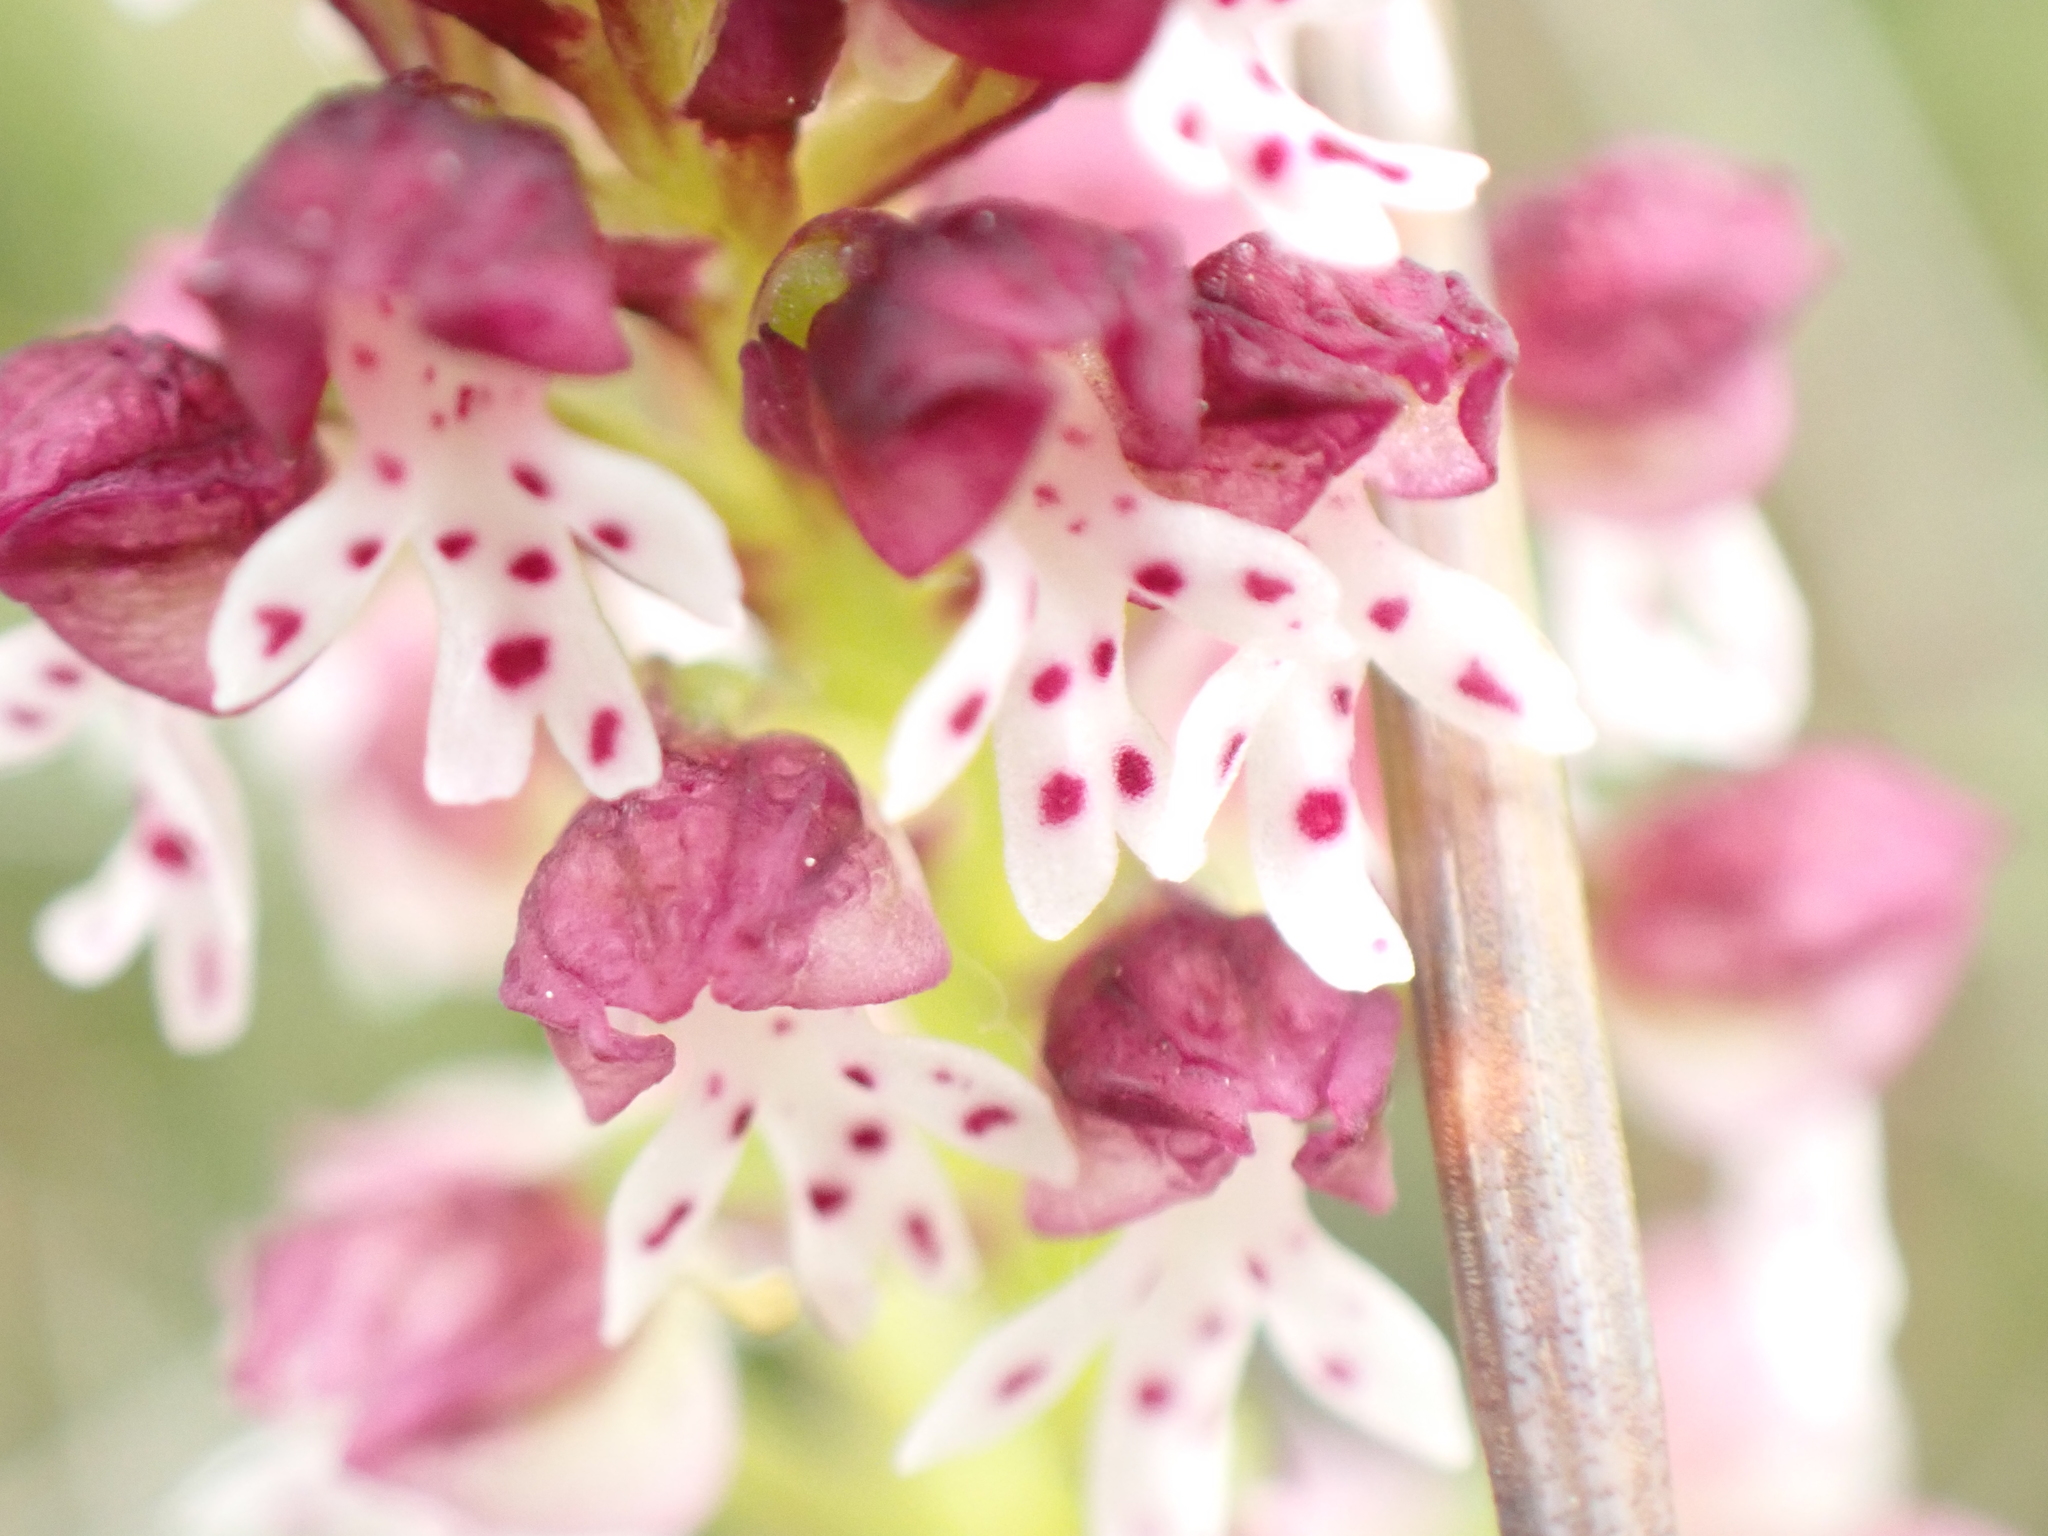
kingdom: Plantae
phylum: Tracheophyta
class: Liliopsida
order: Asparagales
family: Orchidaceae
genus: Neotinea
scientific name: Neotinea ustulata
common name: Burnt orchid
